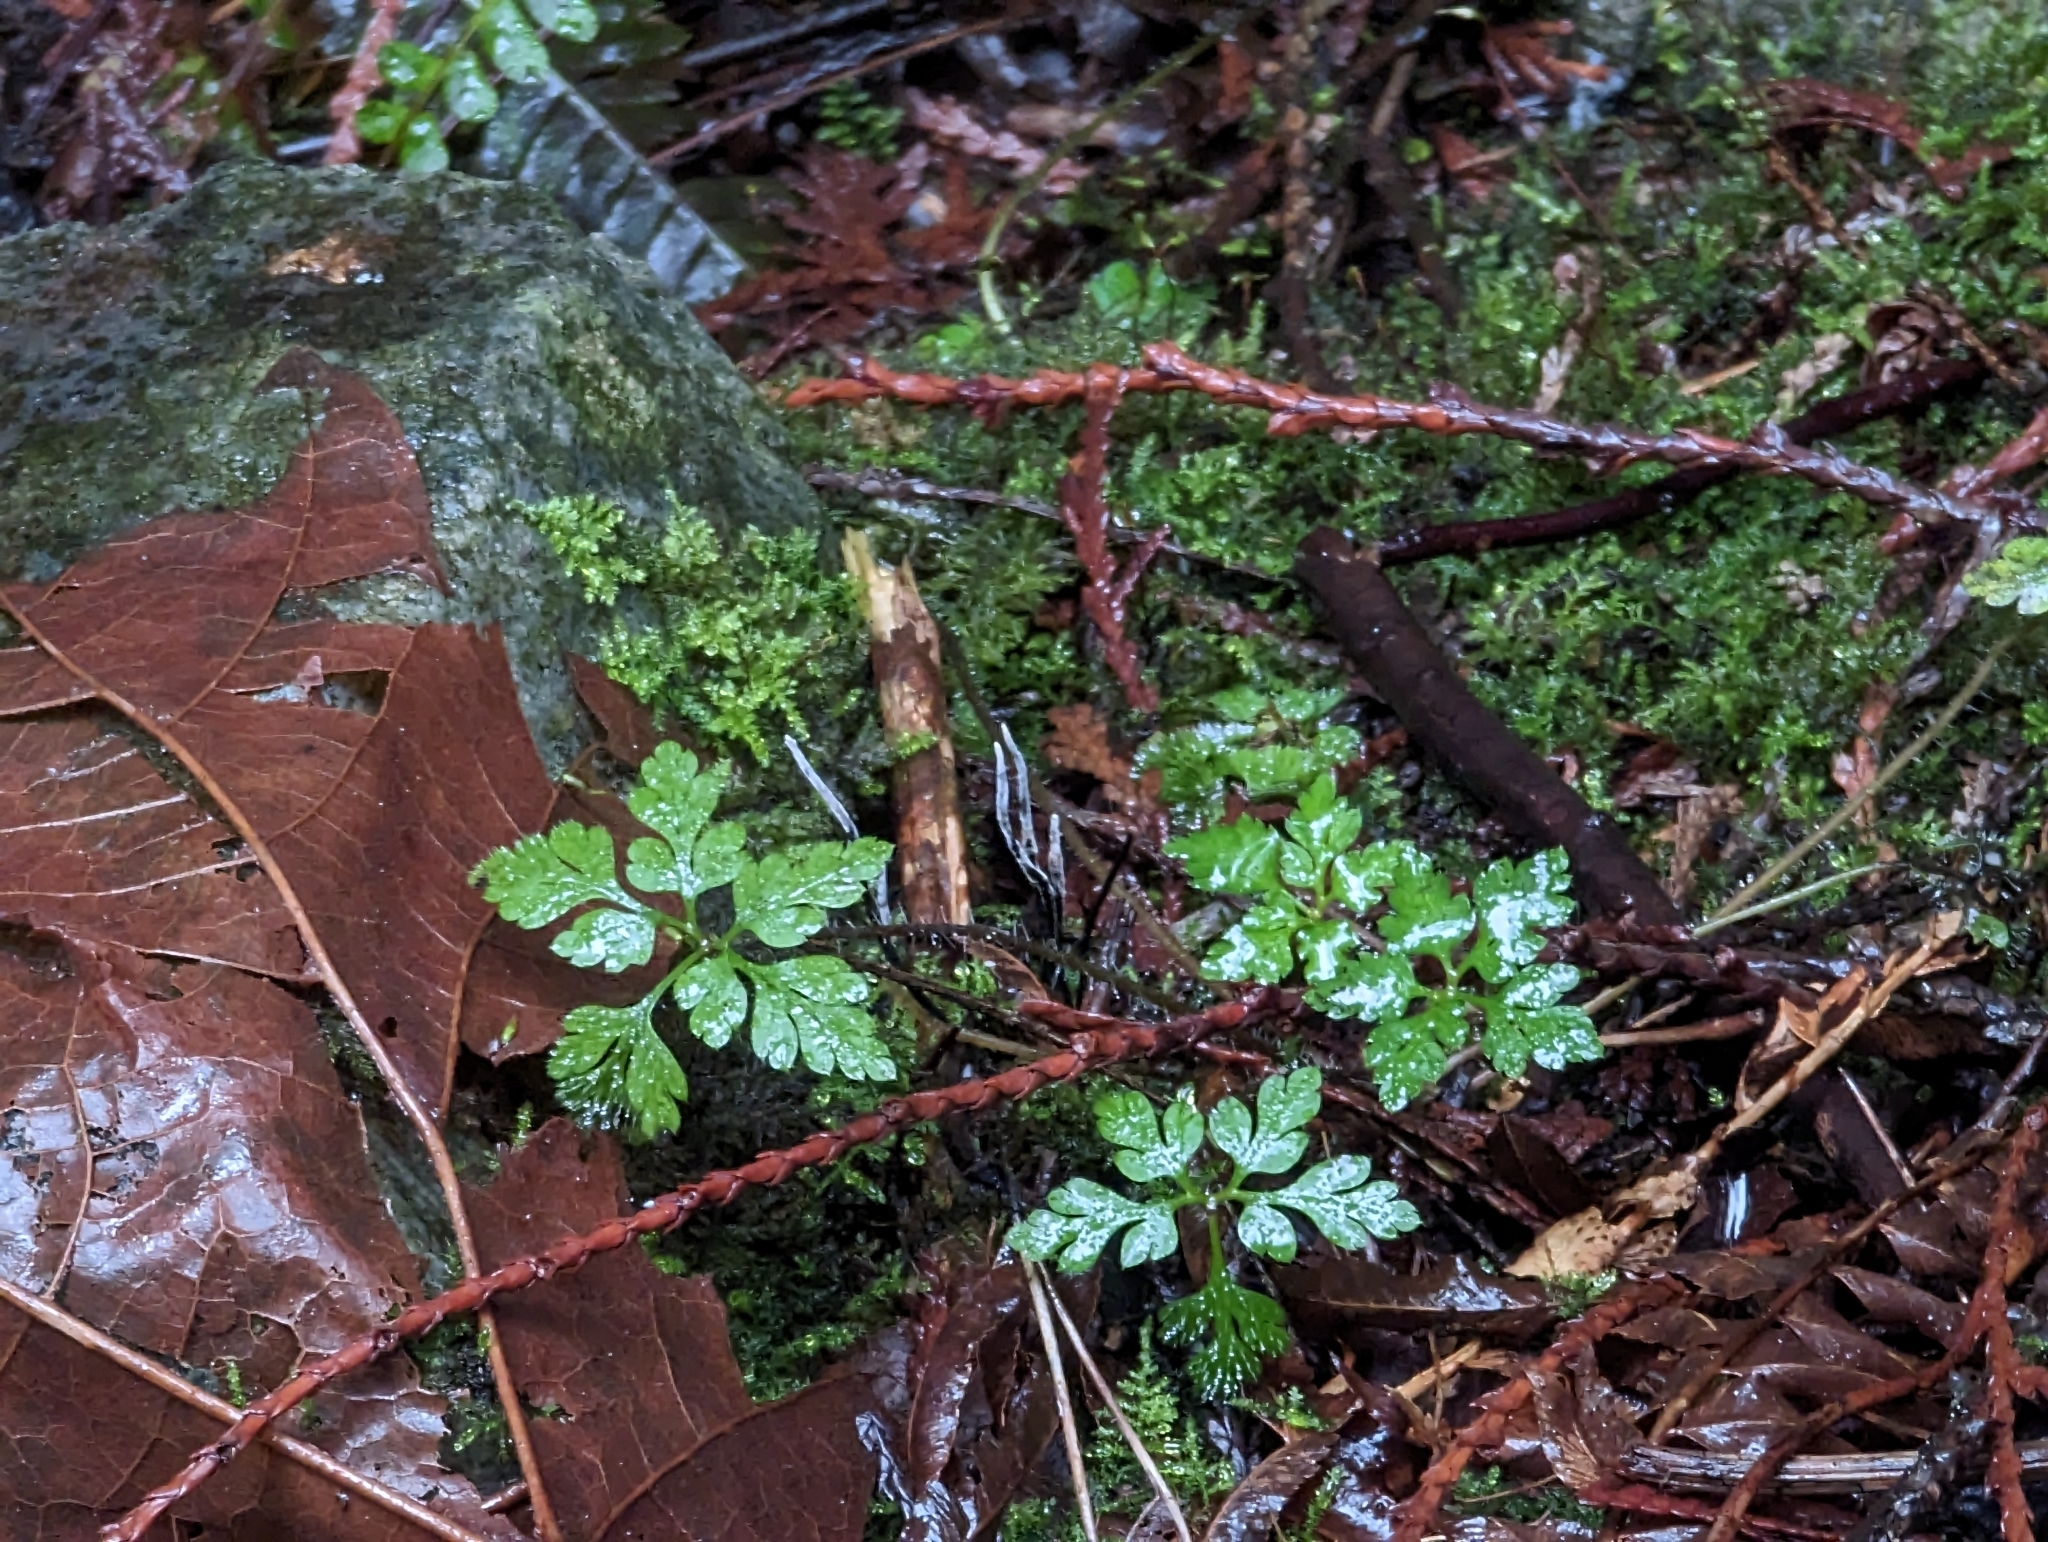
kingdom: Plantae
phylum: Tracheophyta
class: Magnoliopsida
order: Geraniales
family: Geraniaceae
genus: Geranium
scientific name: Geranium robertianum
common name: Herb-robert
